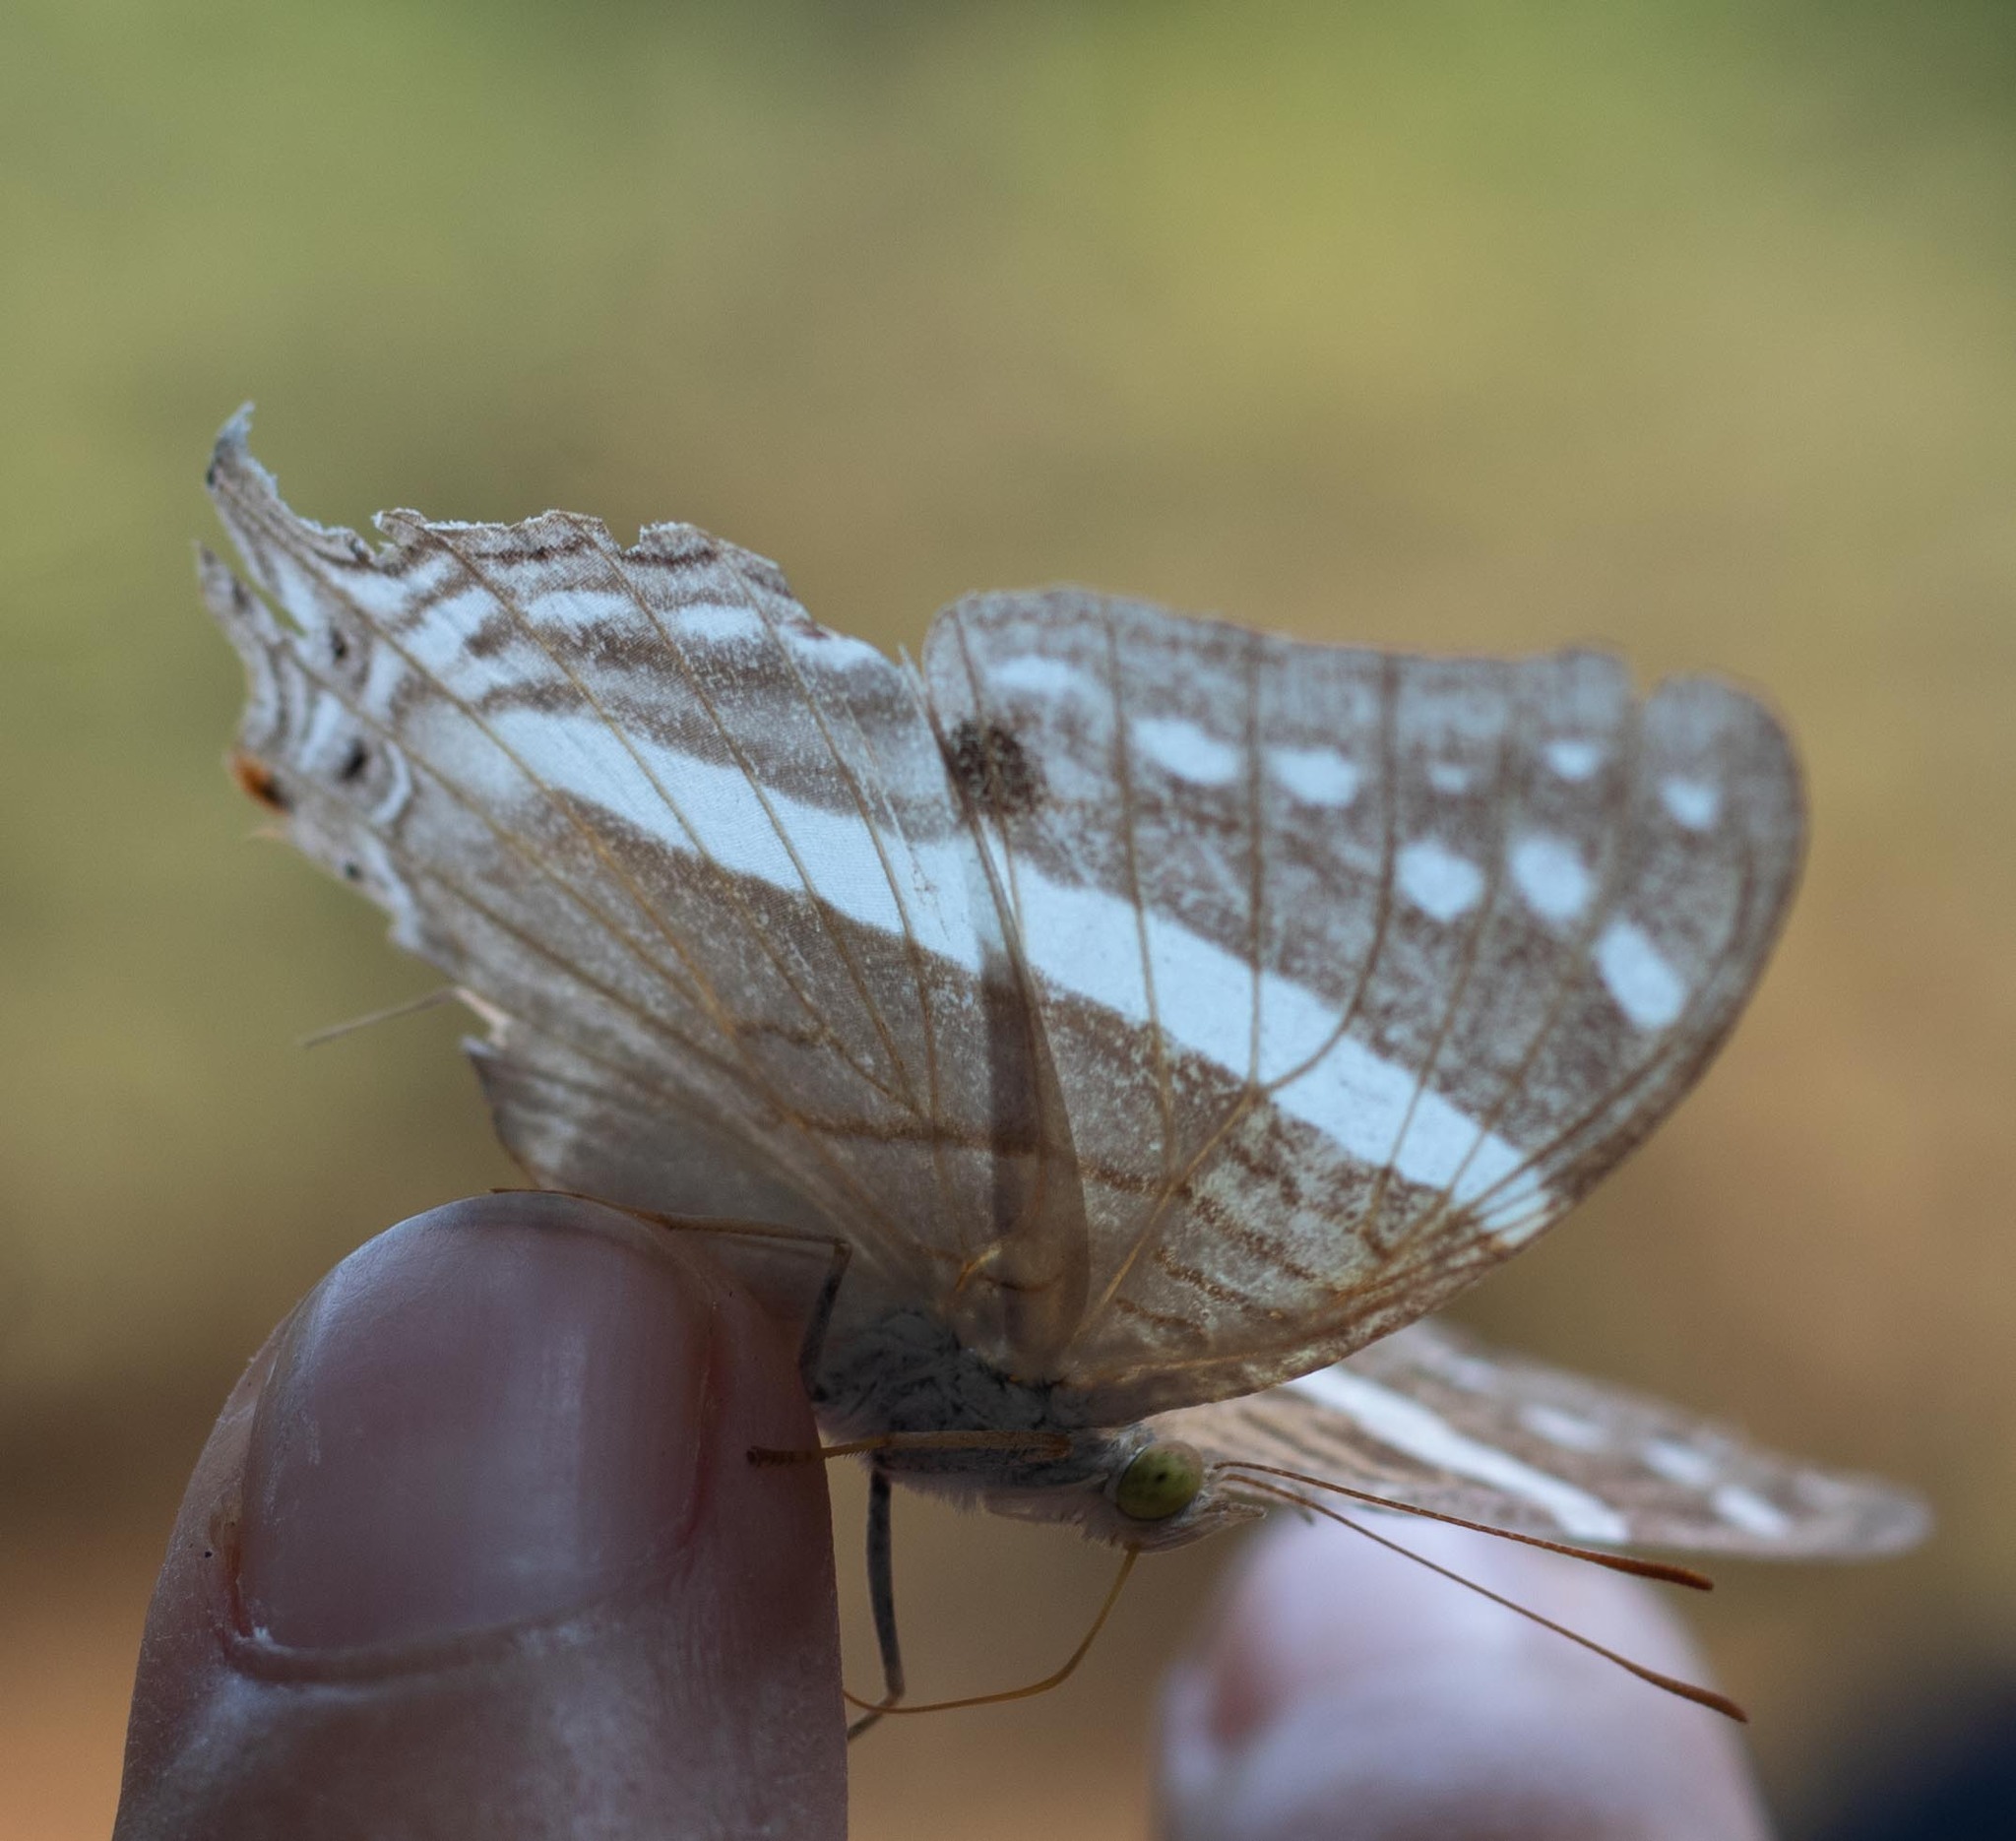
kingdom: Animalia
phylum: Arthropoda
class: Insecta
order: Lepidoptera
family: Nymphalidae
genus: Marpesia
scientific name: Marpesia crethon
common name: Crethon daggerwing
